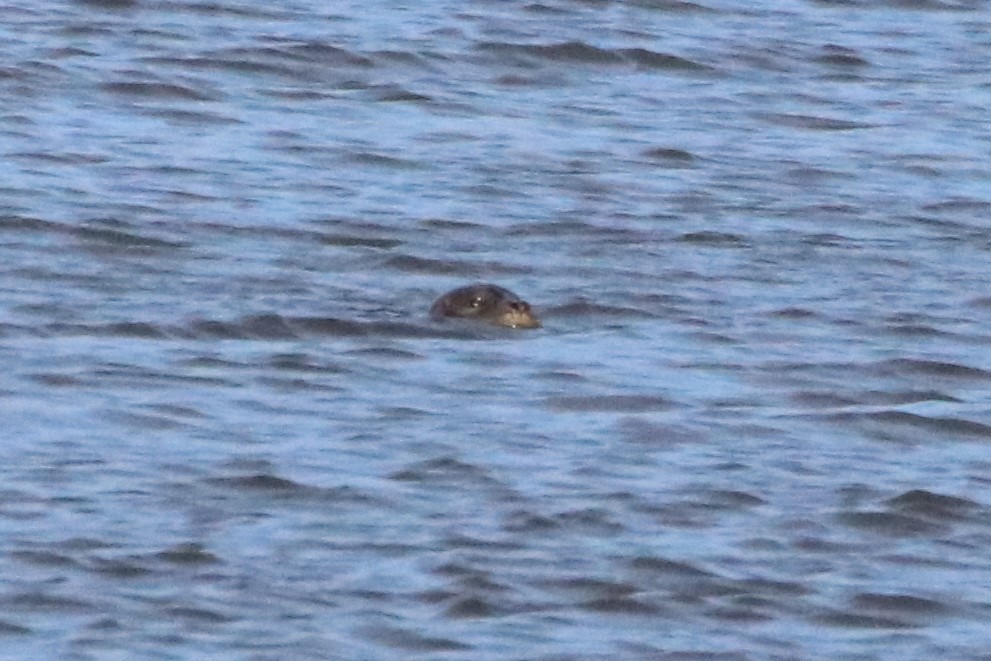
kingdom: Animalia
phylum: Chordata
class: Mammalia
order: Carnivora
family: Phocidae
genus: Phoca
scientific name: Phoca vitulina
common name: Harbor seal
